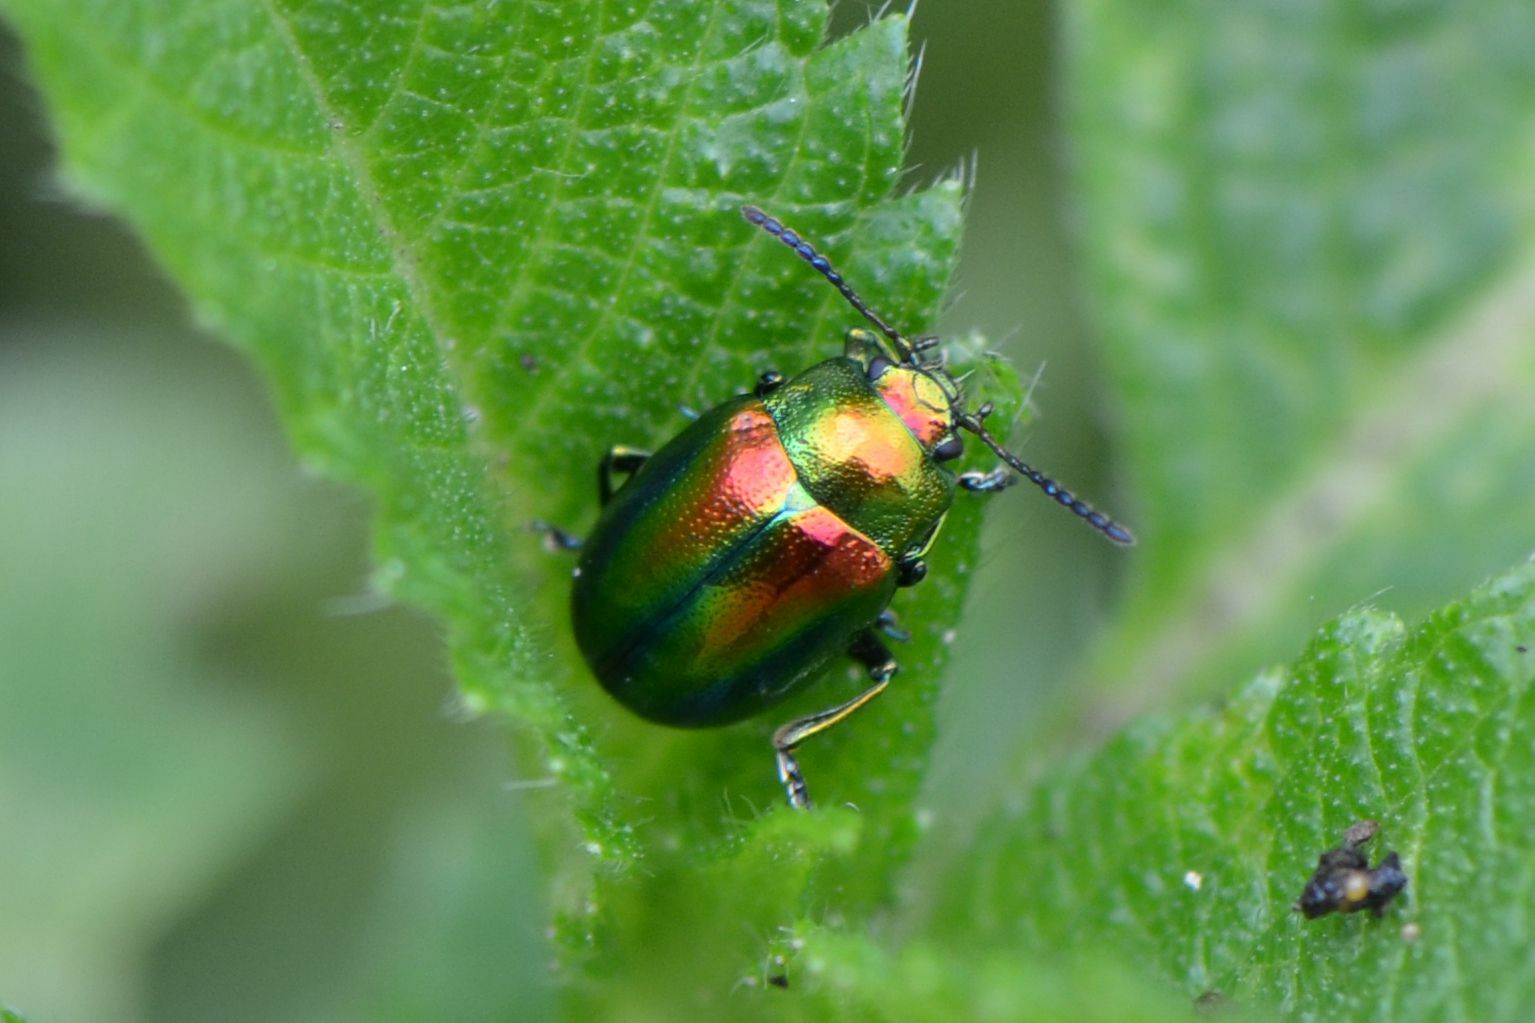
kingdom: Animalia
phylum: Arthropoda
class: Insecta
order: Coleoptera
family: Chrysomelidae
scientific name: Chrysomelidae
